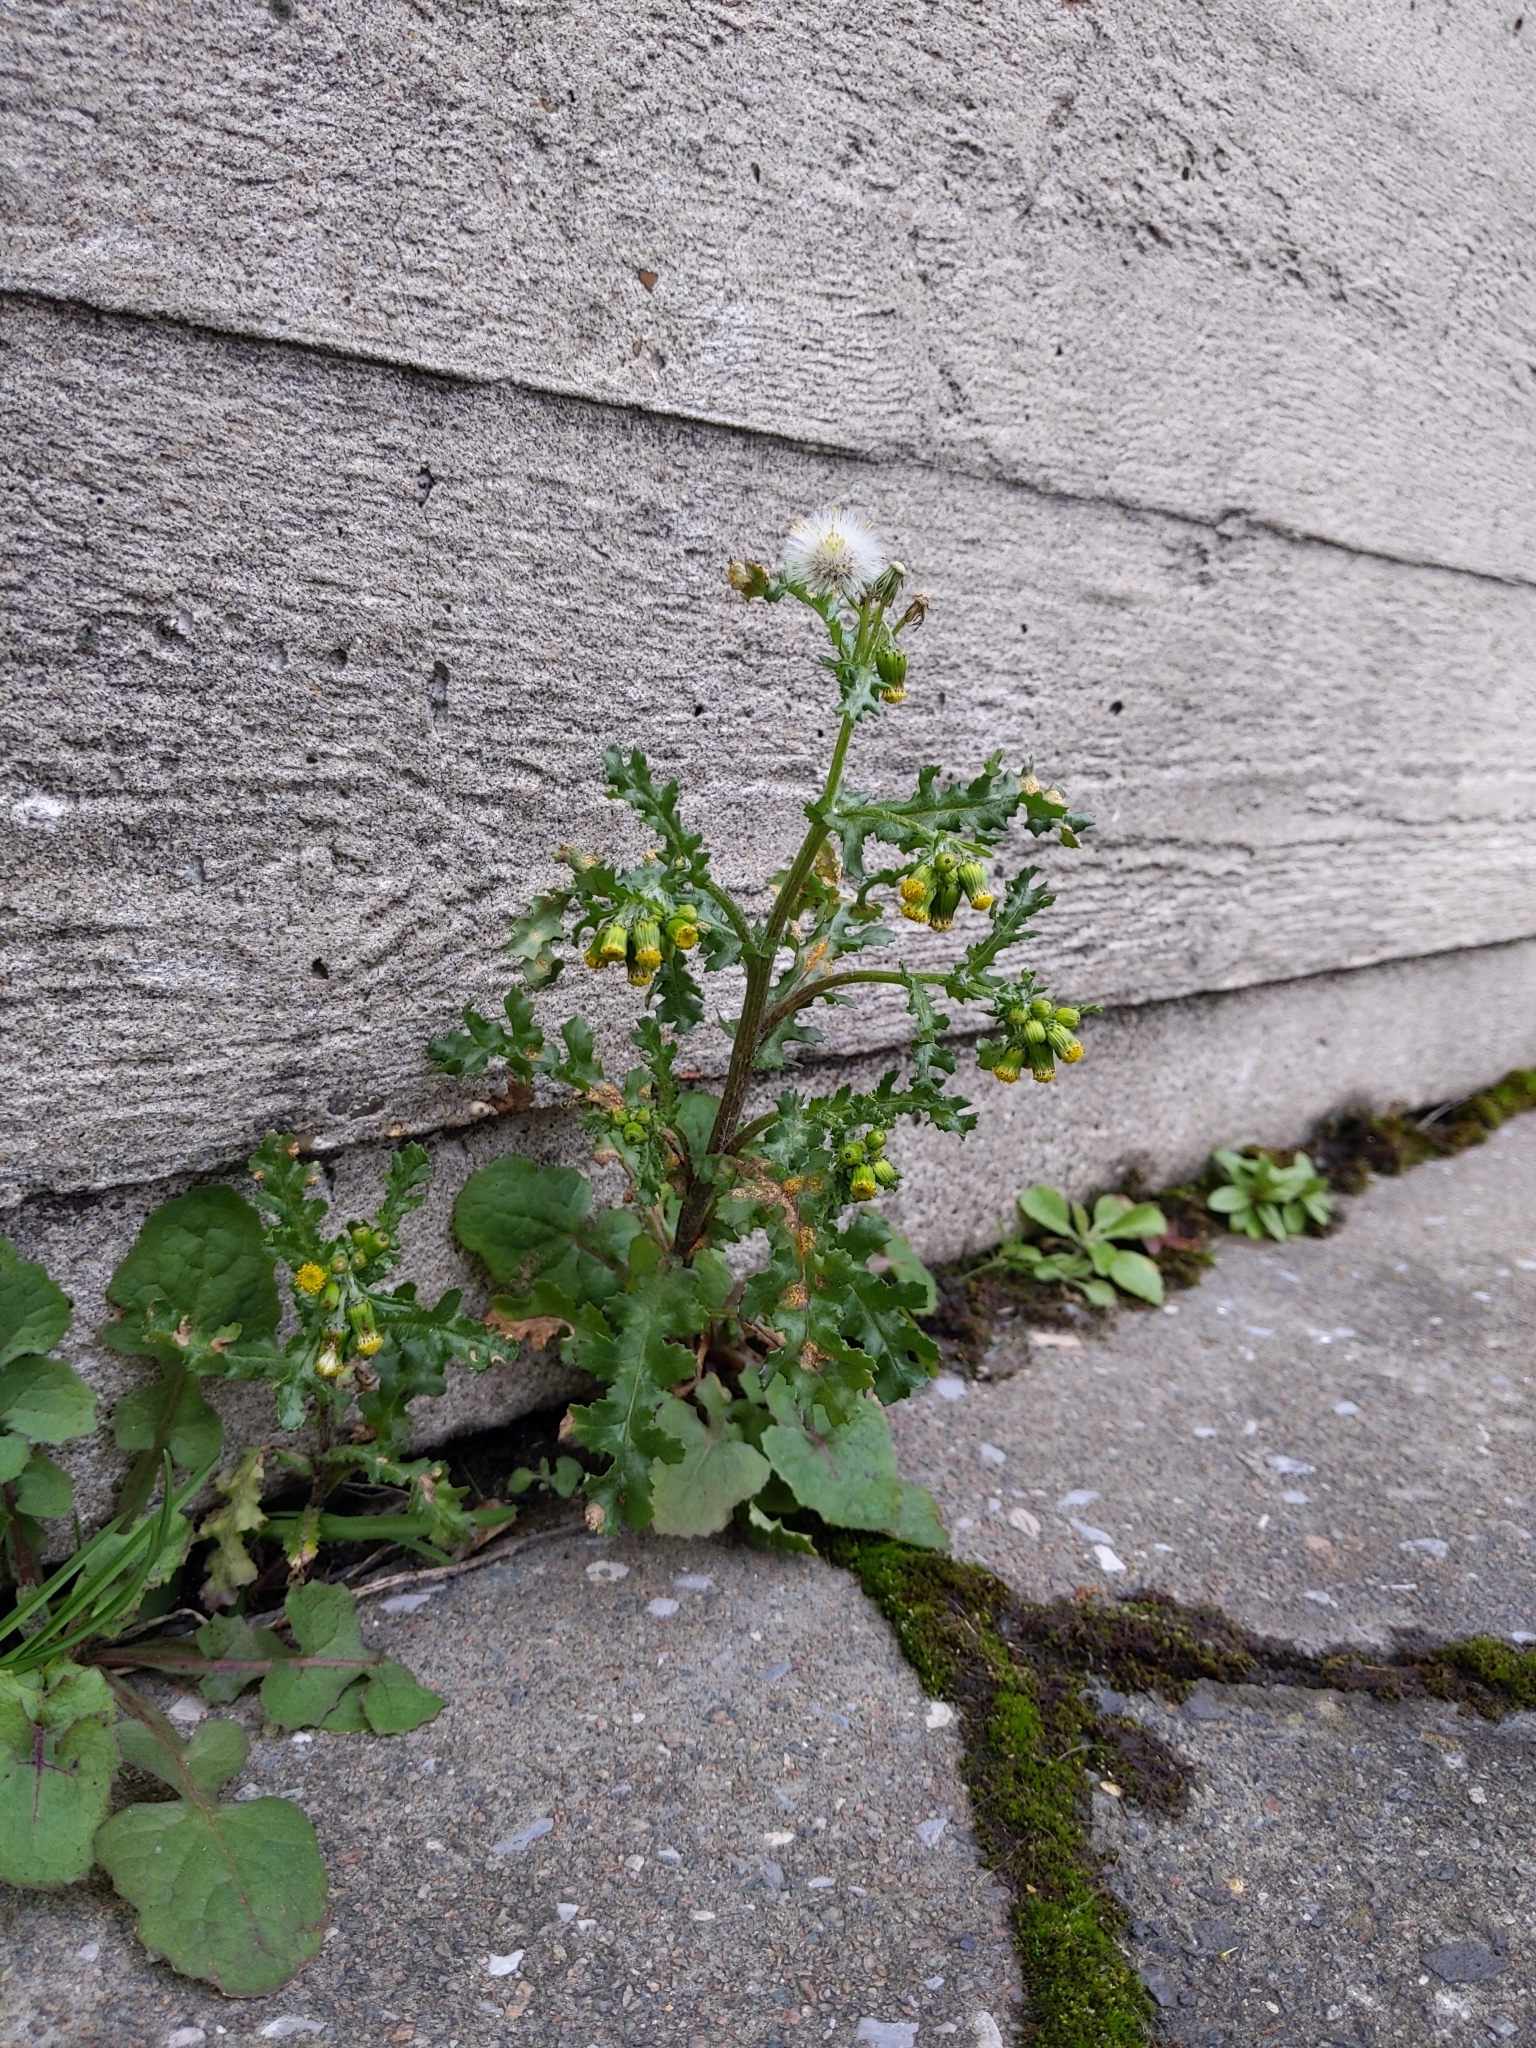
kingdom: Plantae
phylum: Tracheophyta
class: Magnoliopsida
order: Asterales
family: Asteraceae
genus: Senecio
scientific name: Senecio vulgaris
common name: Old-man-in-the-spring
